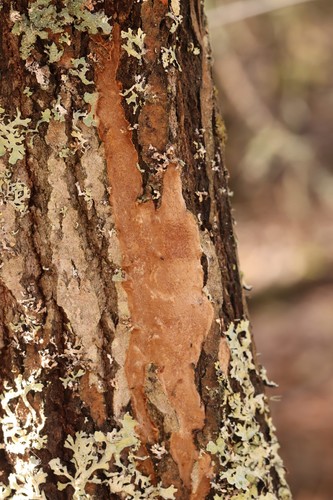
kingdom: Fungi
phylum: Basidiomycota
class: Agaricomycetes
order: Hymenochaetales
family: Hymenochaetaceae
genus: Fomitiporia
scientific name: Fomitiporia punctata
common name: Elbowpatch crust
